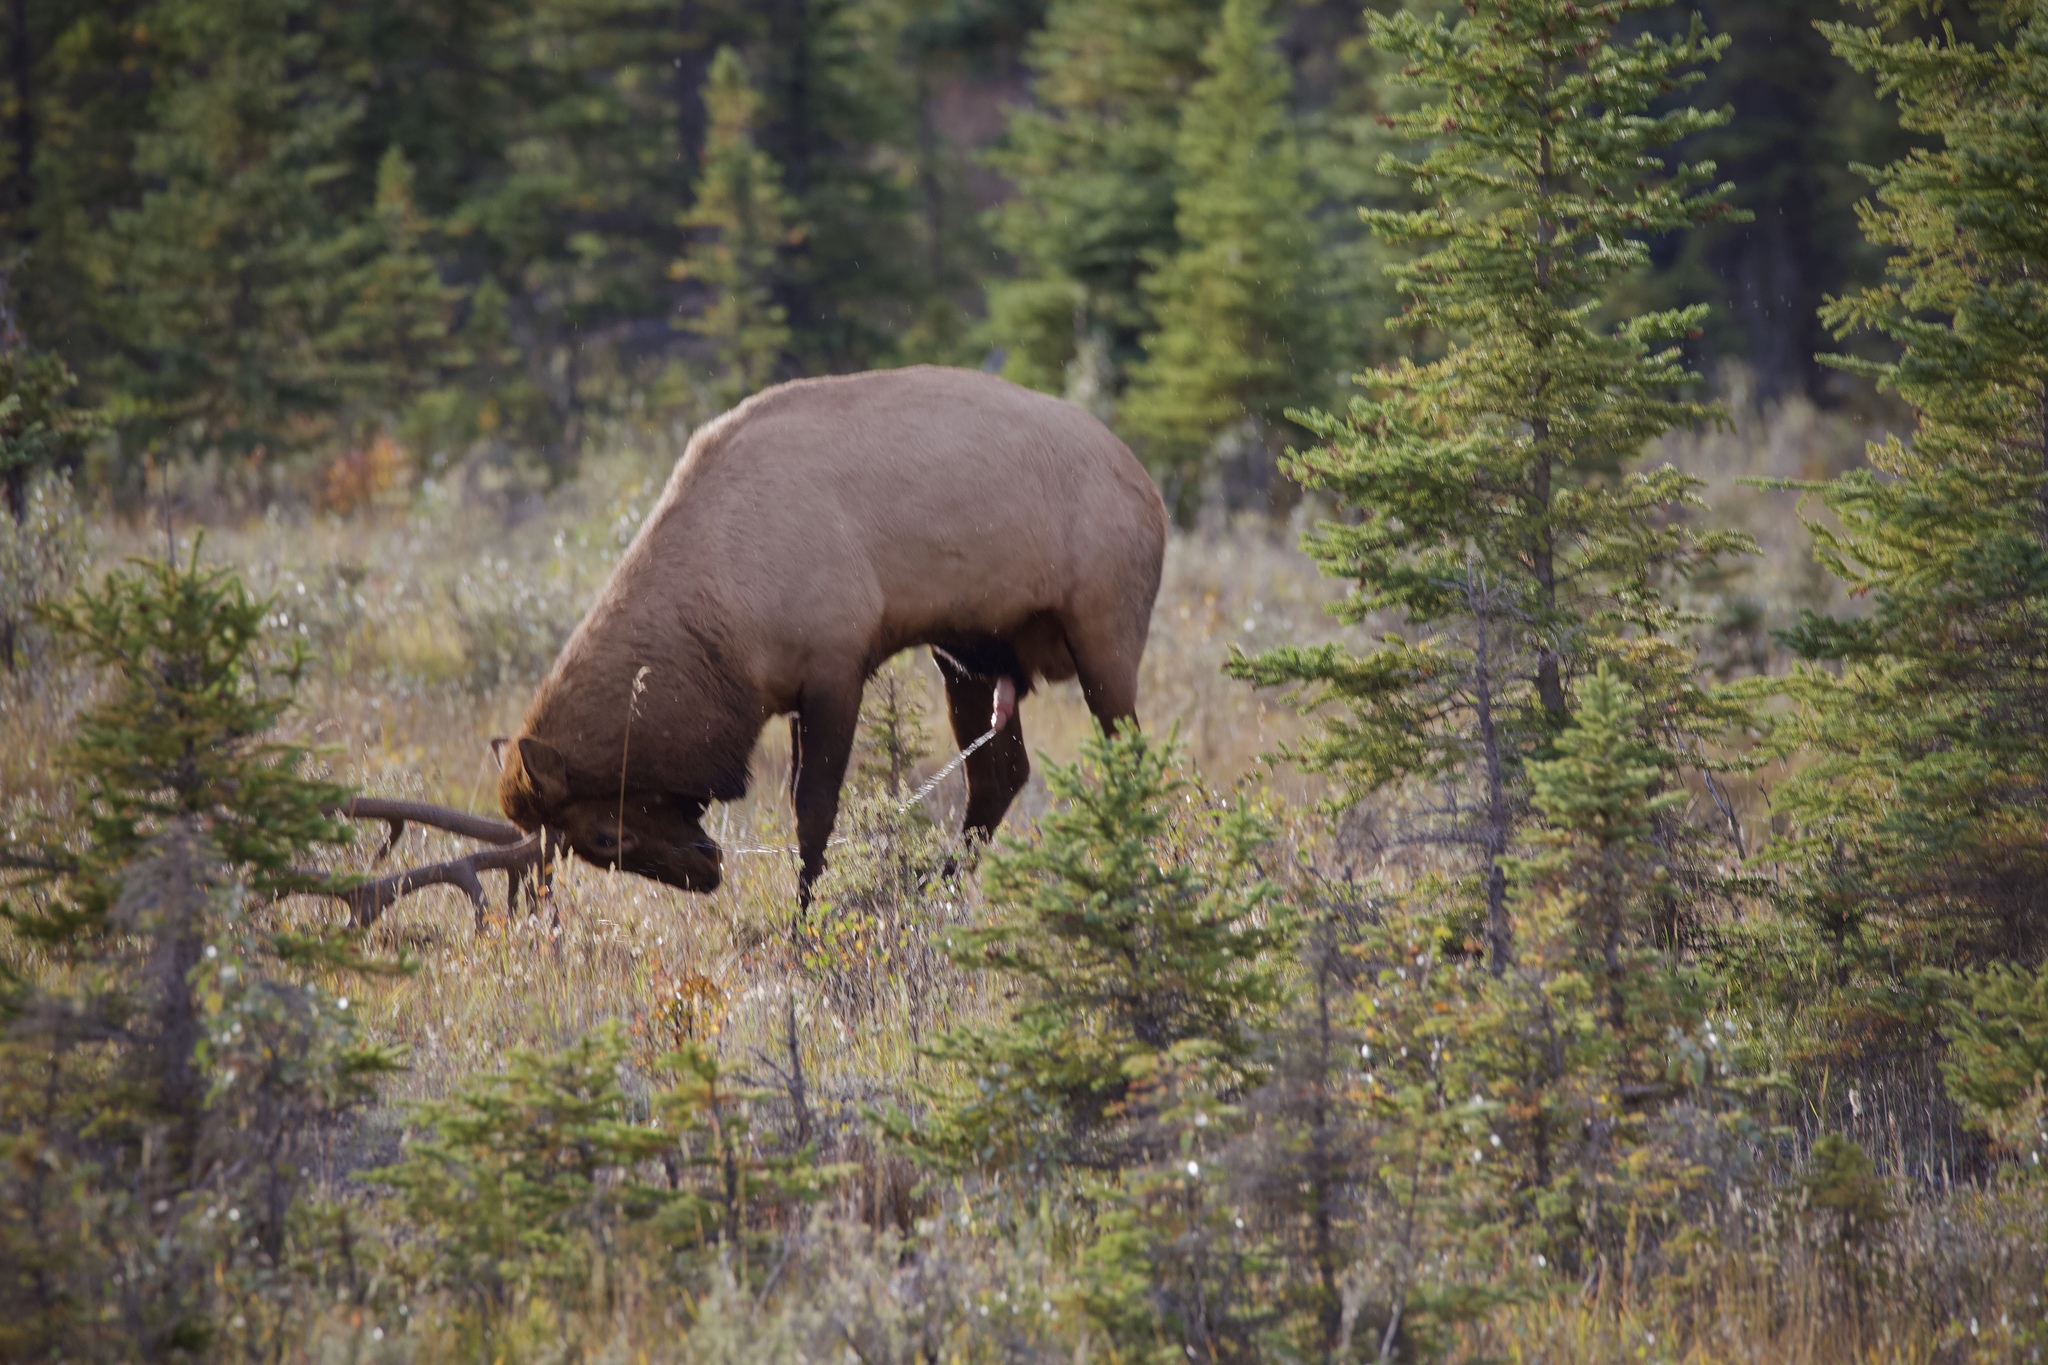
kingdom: Animalia
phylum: Chordata
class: Mammalia
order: Artiodactyla
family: Cervidae
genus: Cervus
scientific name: Cervus elaphus
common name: Red deer
